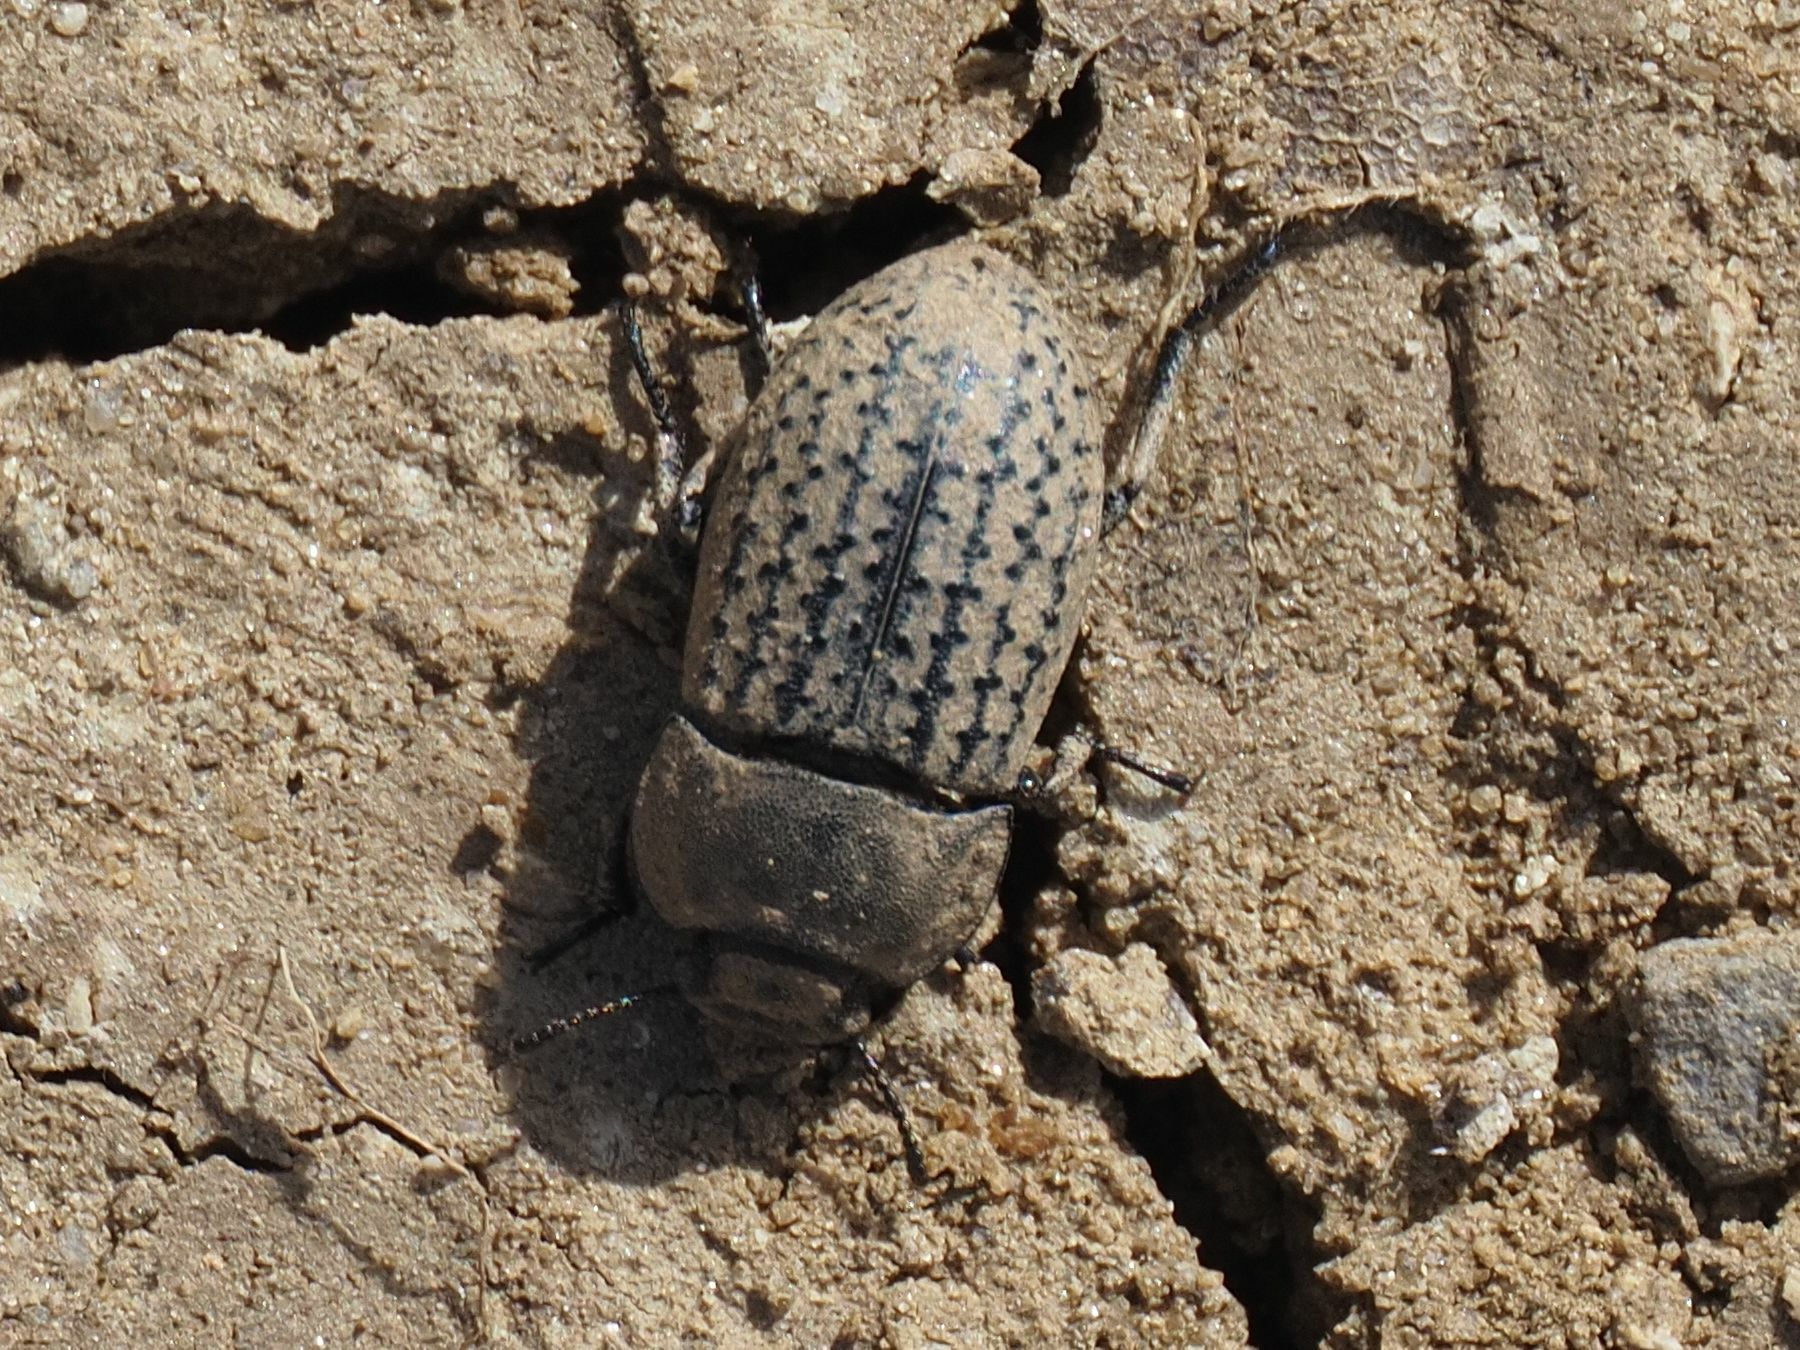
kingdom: Animalia
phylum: Arthropoda
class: Insecta
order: Coleoptera
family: Tenebrionidae
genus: Opatrum
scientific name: Opatrum sabulosum
